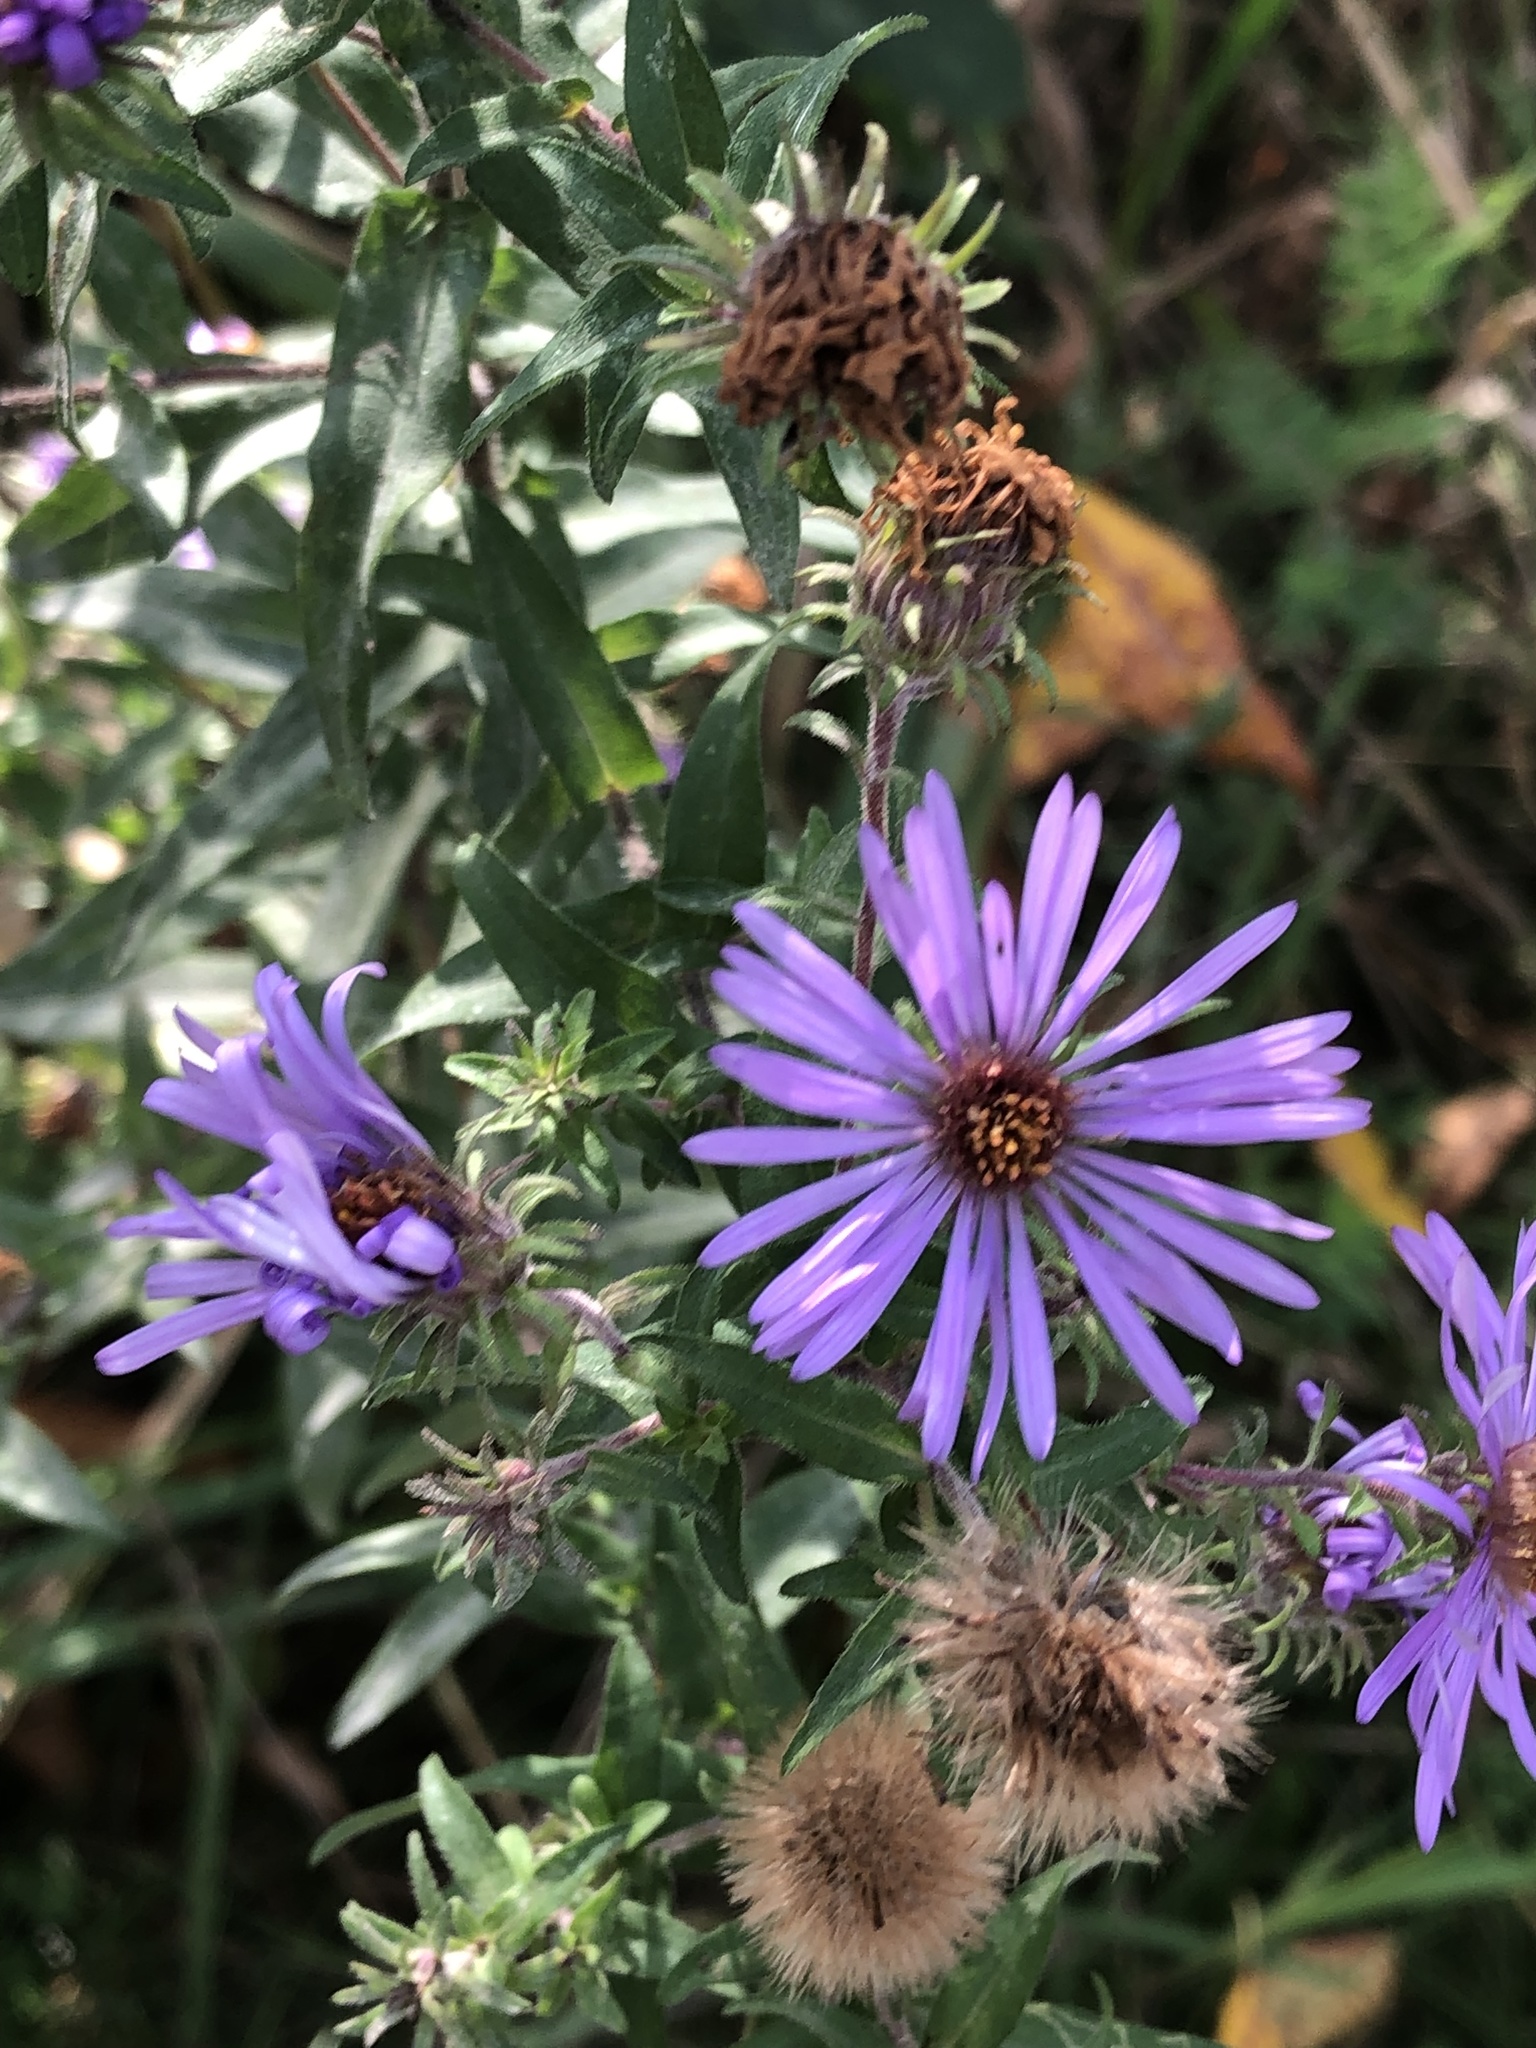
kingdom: Plantae
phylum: Tracheophyta
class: Magnoliopsida
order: Asterales
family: Asteraceae
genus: Symphyotrichum
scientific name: Symphyotrichum novae-angliae
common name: Michaelmas daisy
